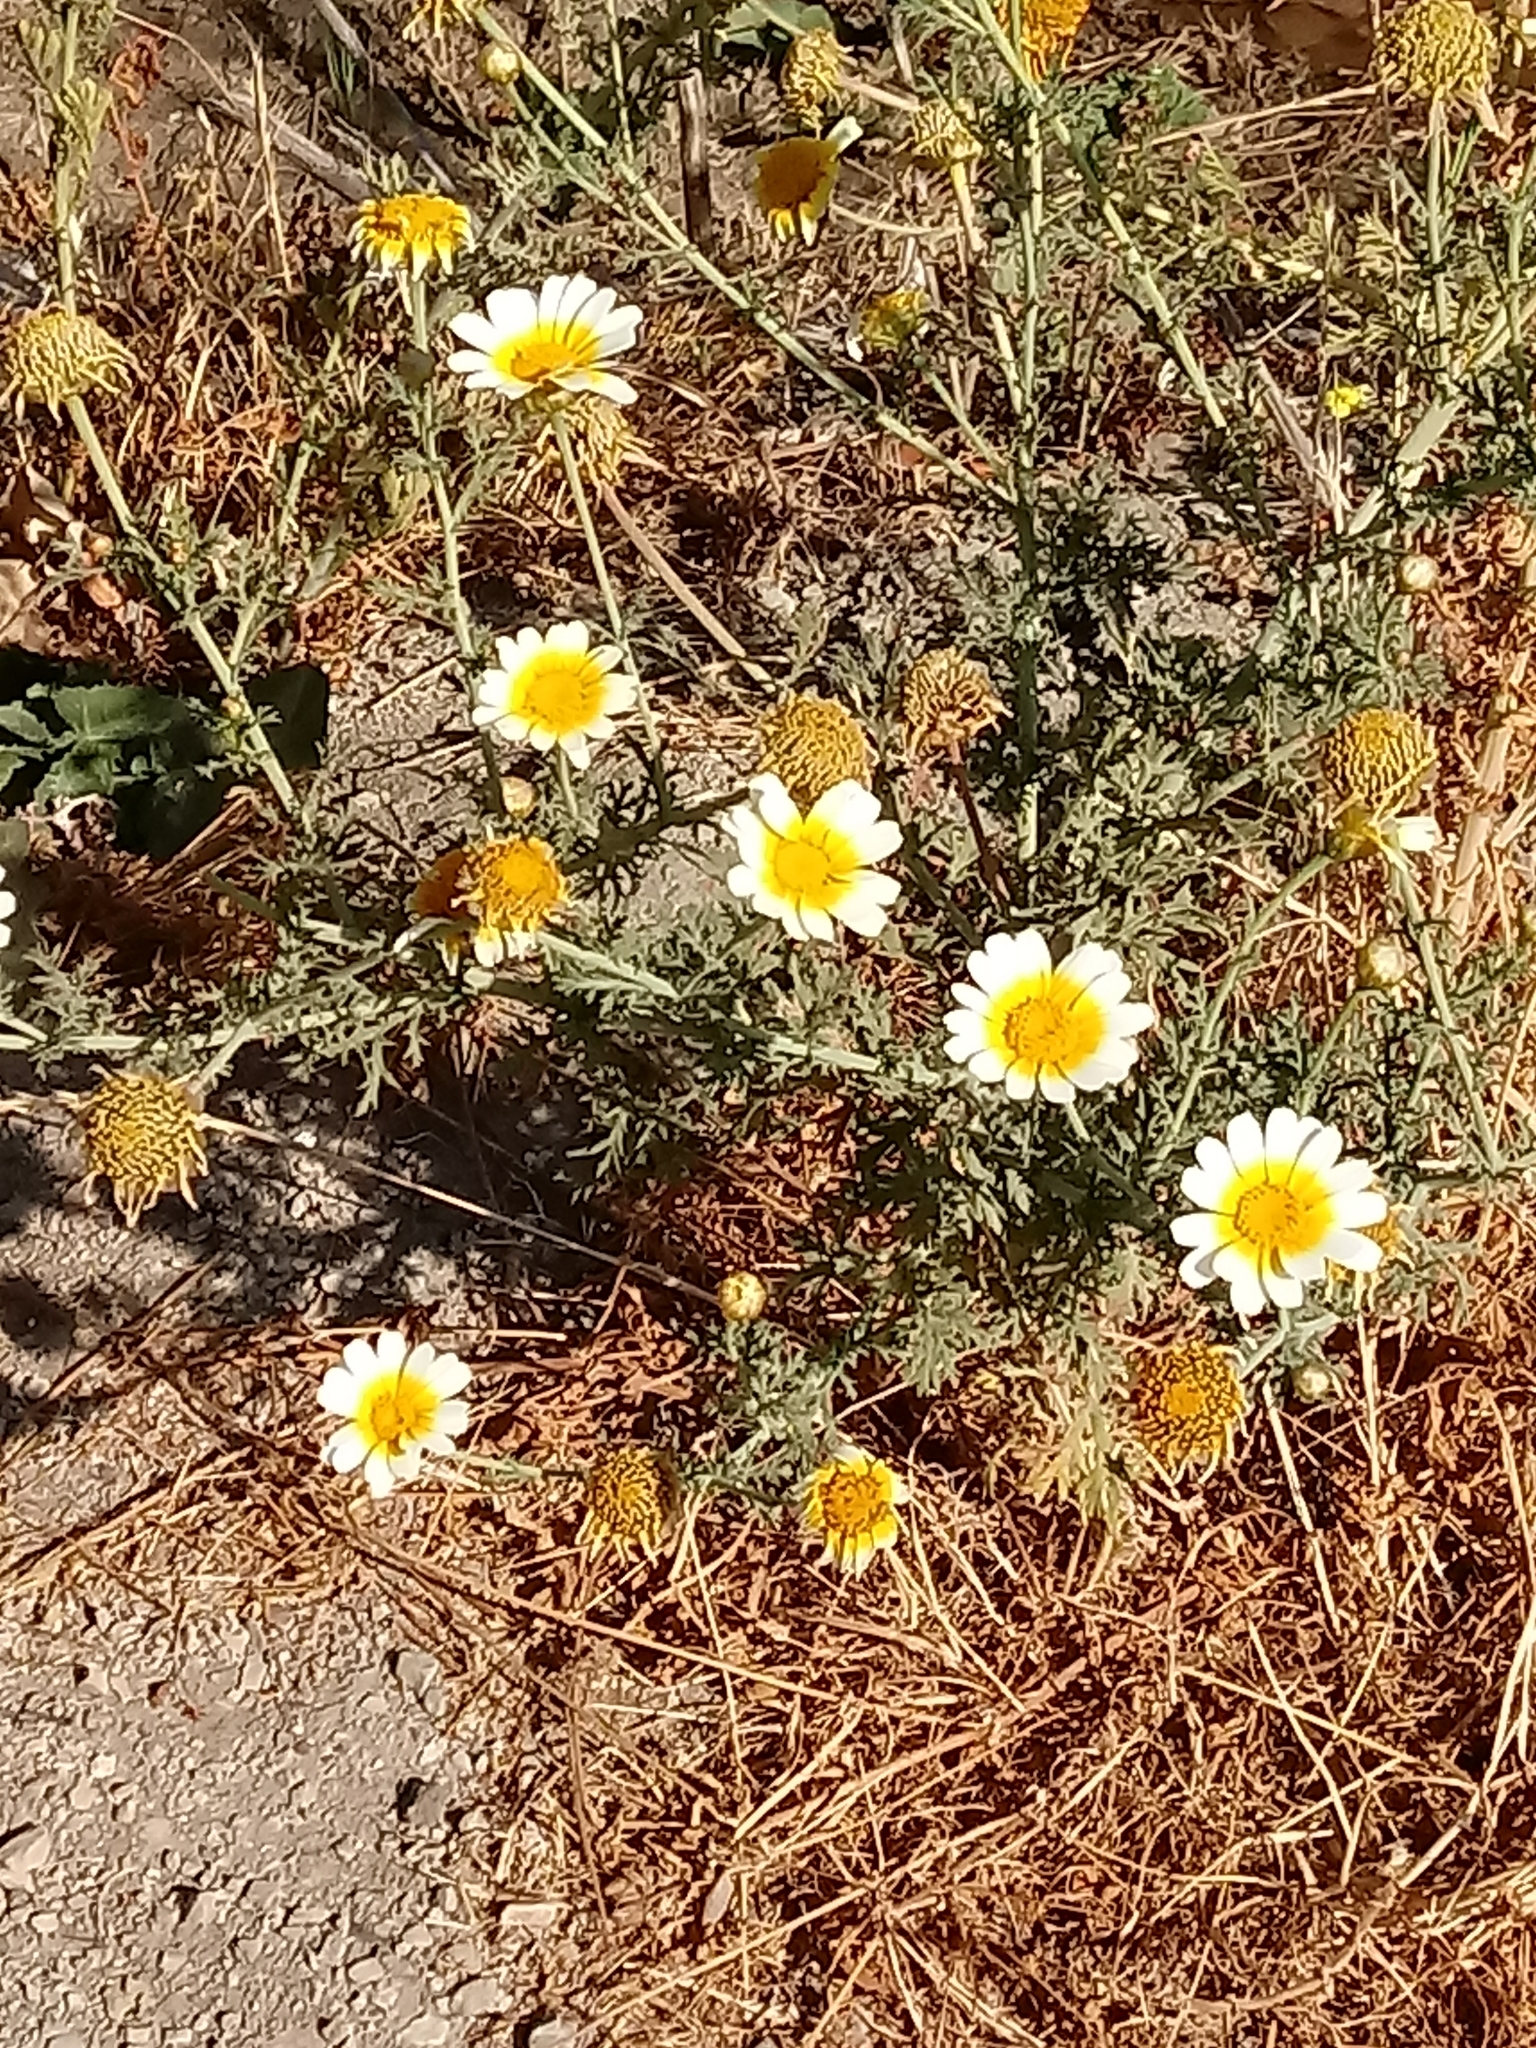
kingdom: Plantae
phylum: Tracheophyta
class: Magnoliopsida
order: Asterales
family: Asteraceae
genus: Glebionis
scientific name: Glebionis coronaria
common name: Crowndaisy
